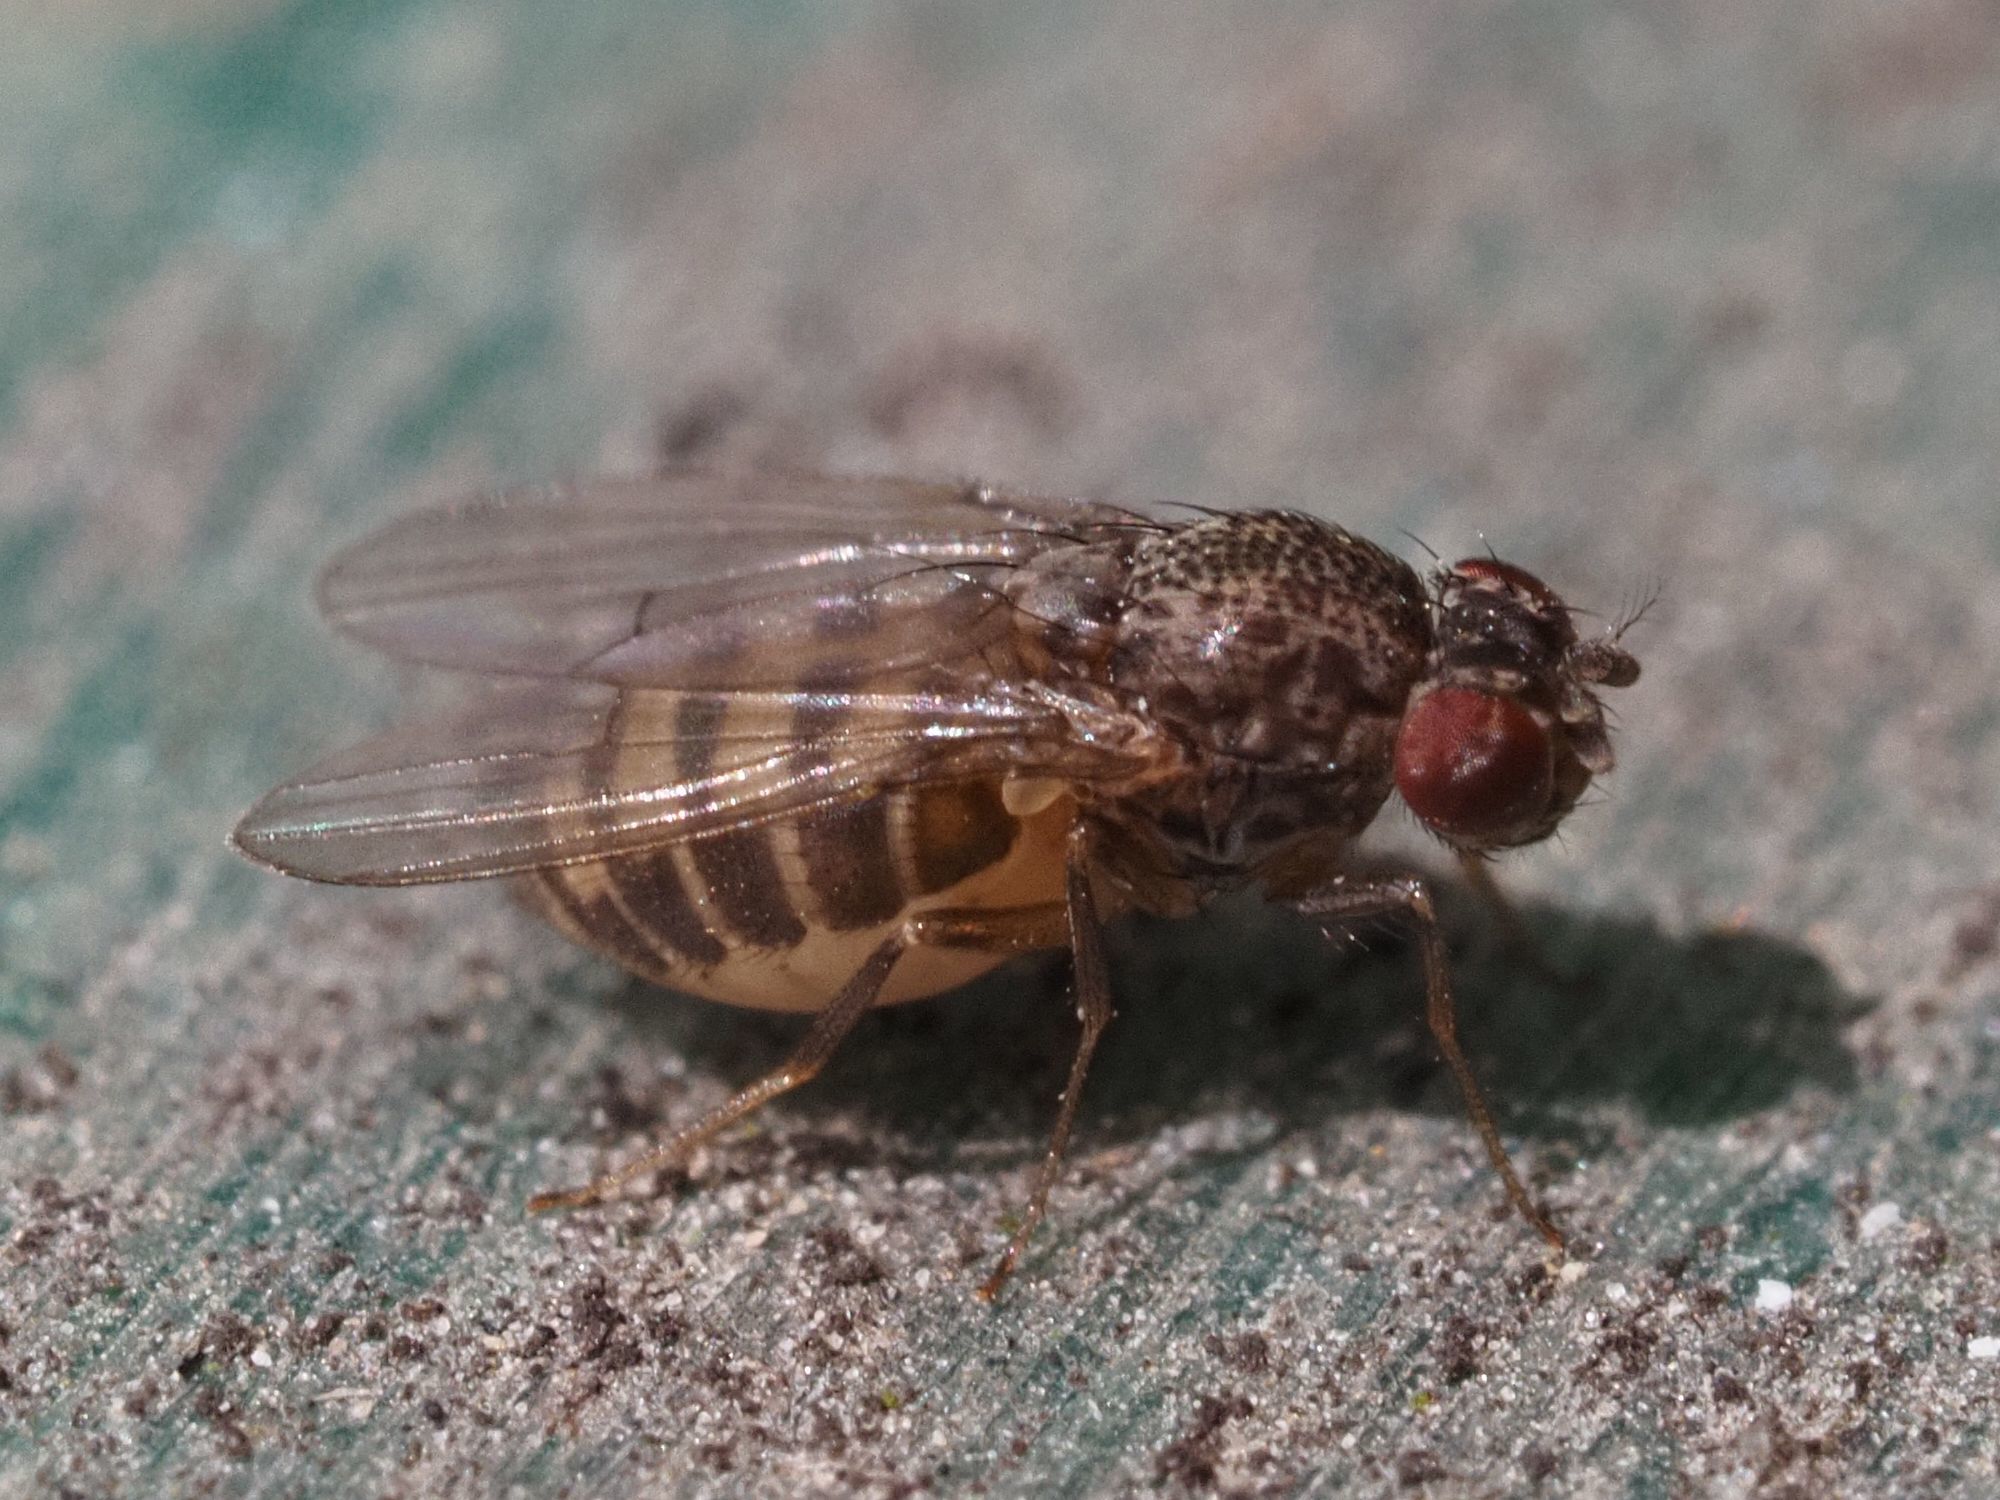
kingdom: Animalia
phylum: Arthropoda
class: Insecta
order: Diptera
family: Drosophilidae
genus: Drosophila
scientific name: Drosophila repleta
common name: Pomace fly
